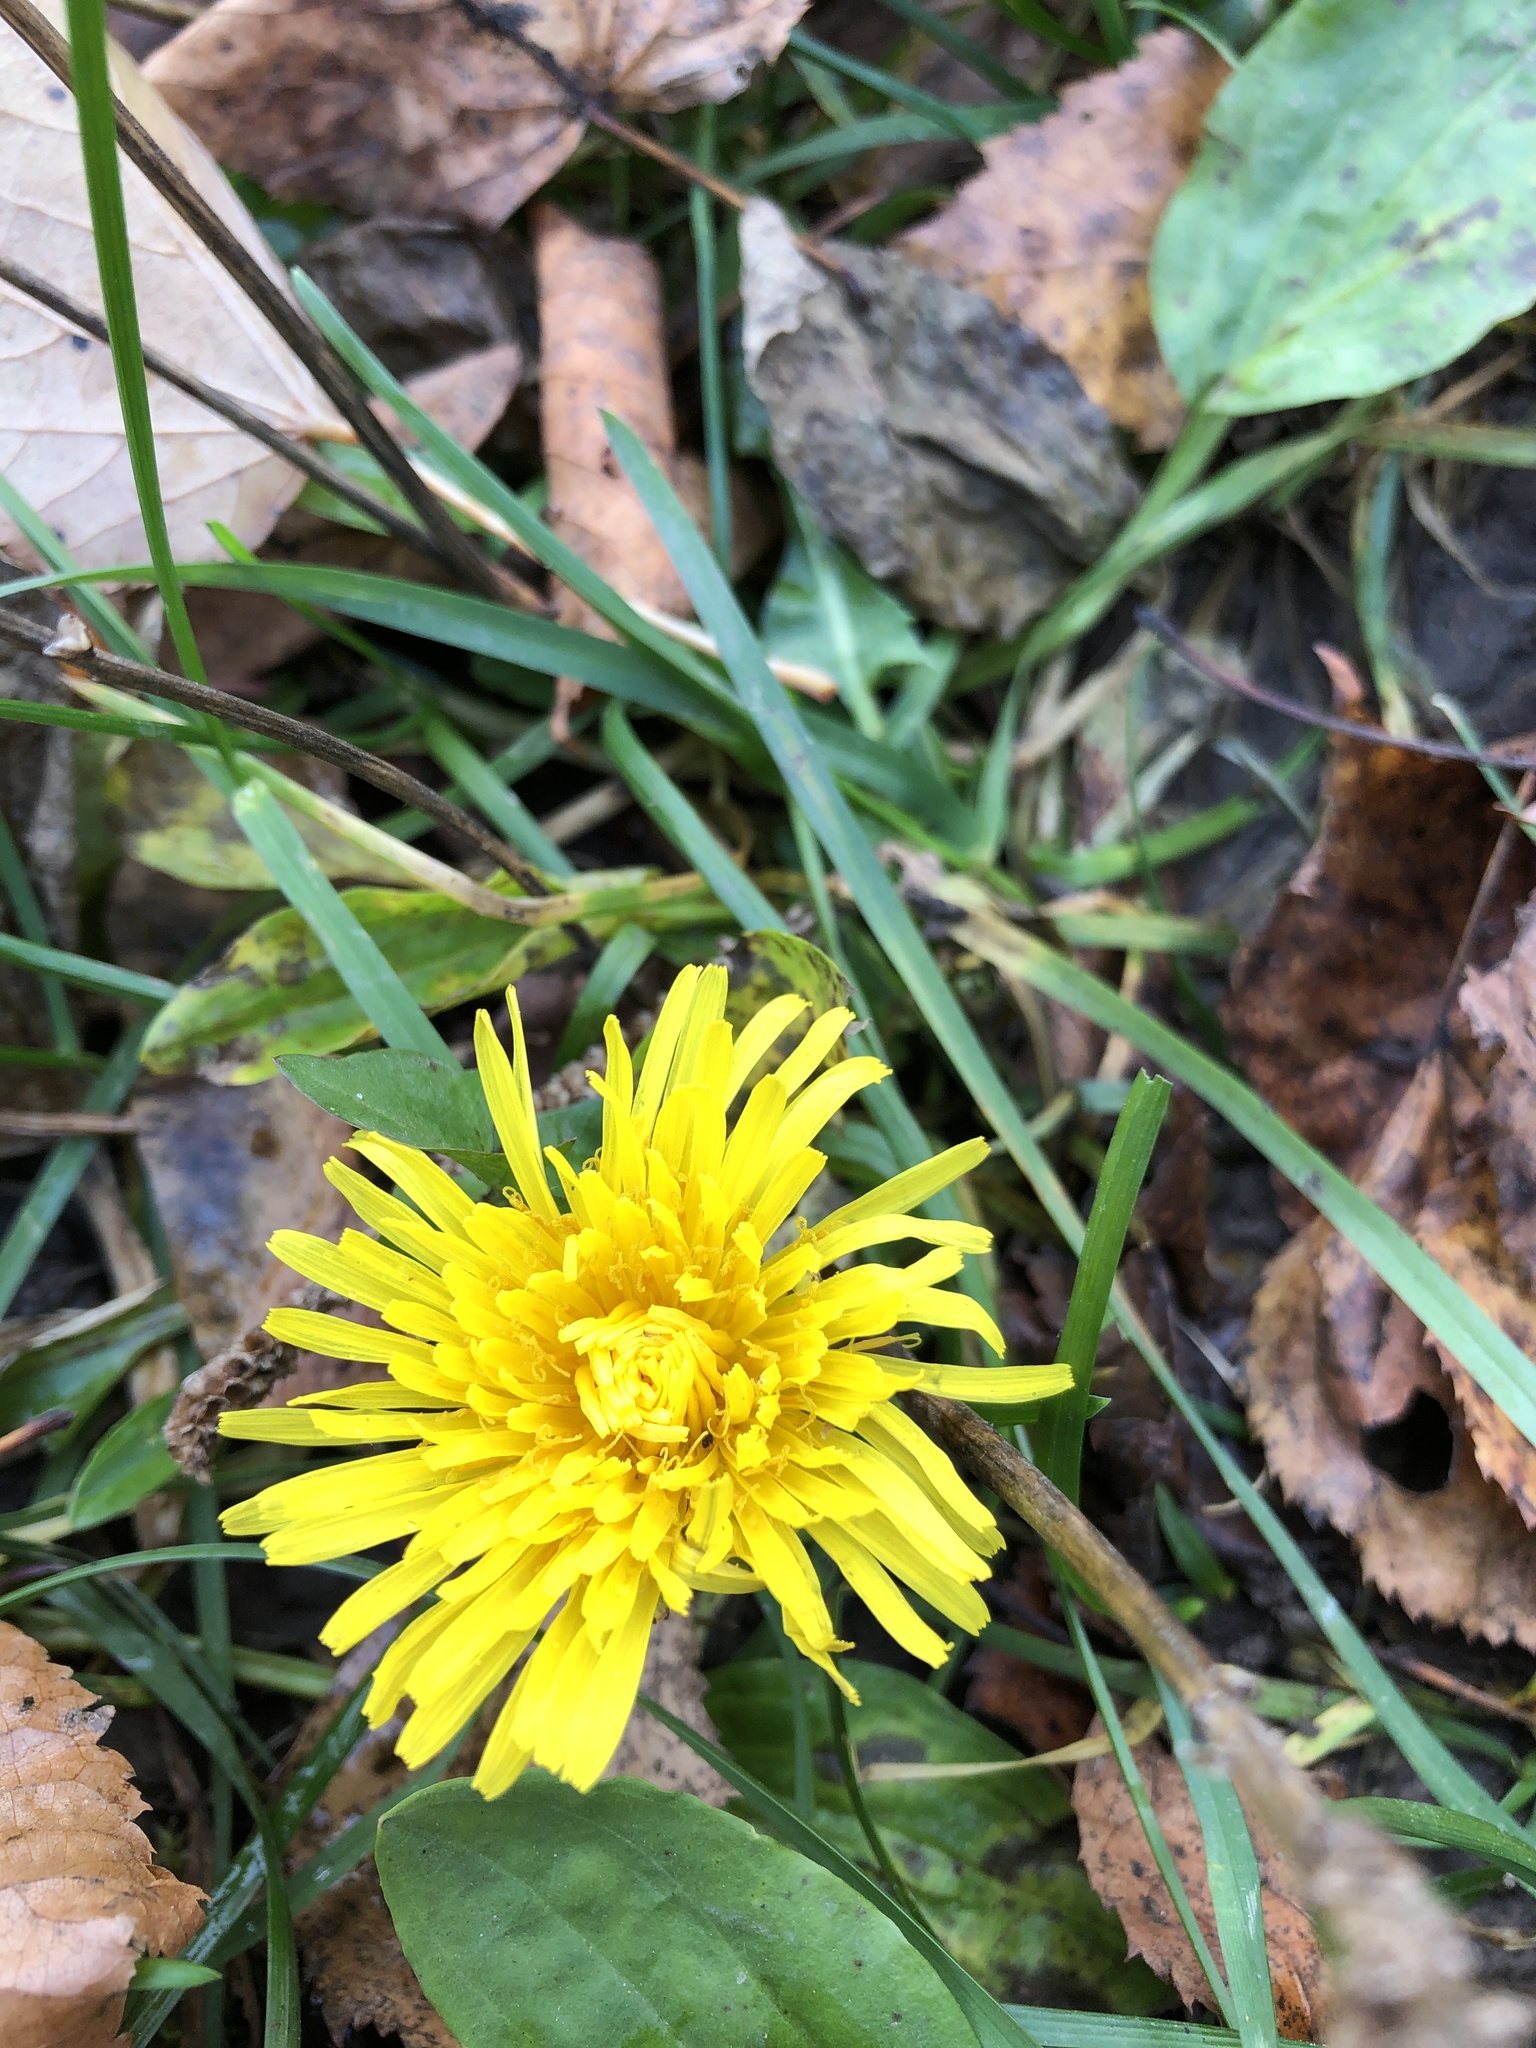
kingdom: Plantae
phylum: Tracheophyta
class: Magnoliopsida
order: Asterales
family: Asteraceae
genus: Taraxacum
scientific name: Taraxacum officinale
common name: Common dandelion
